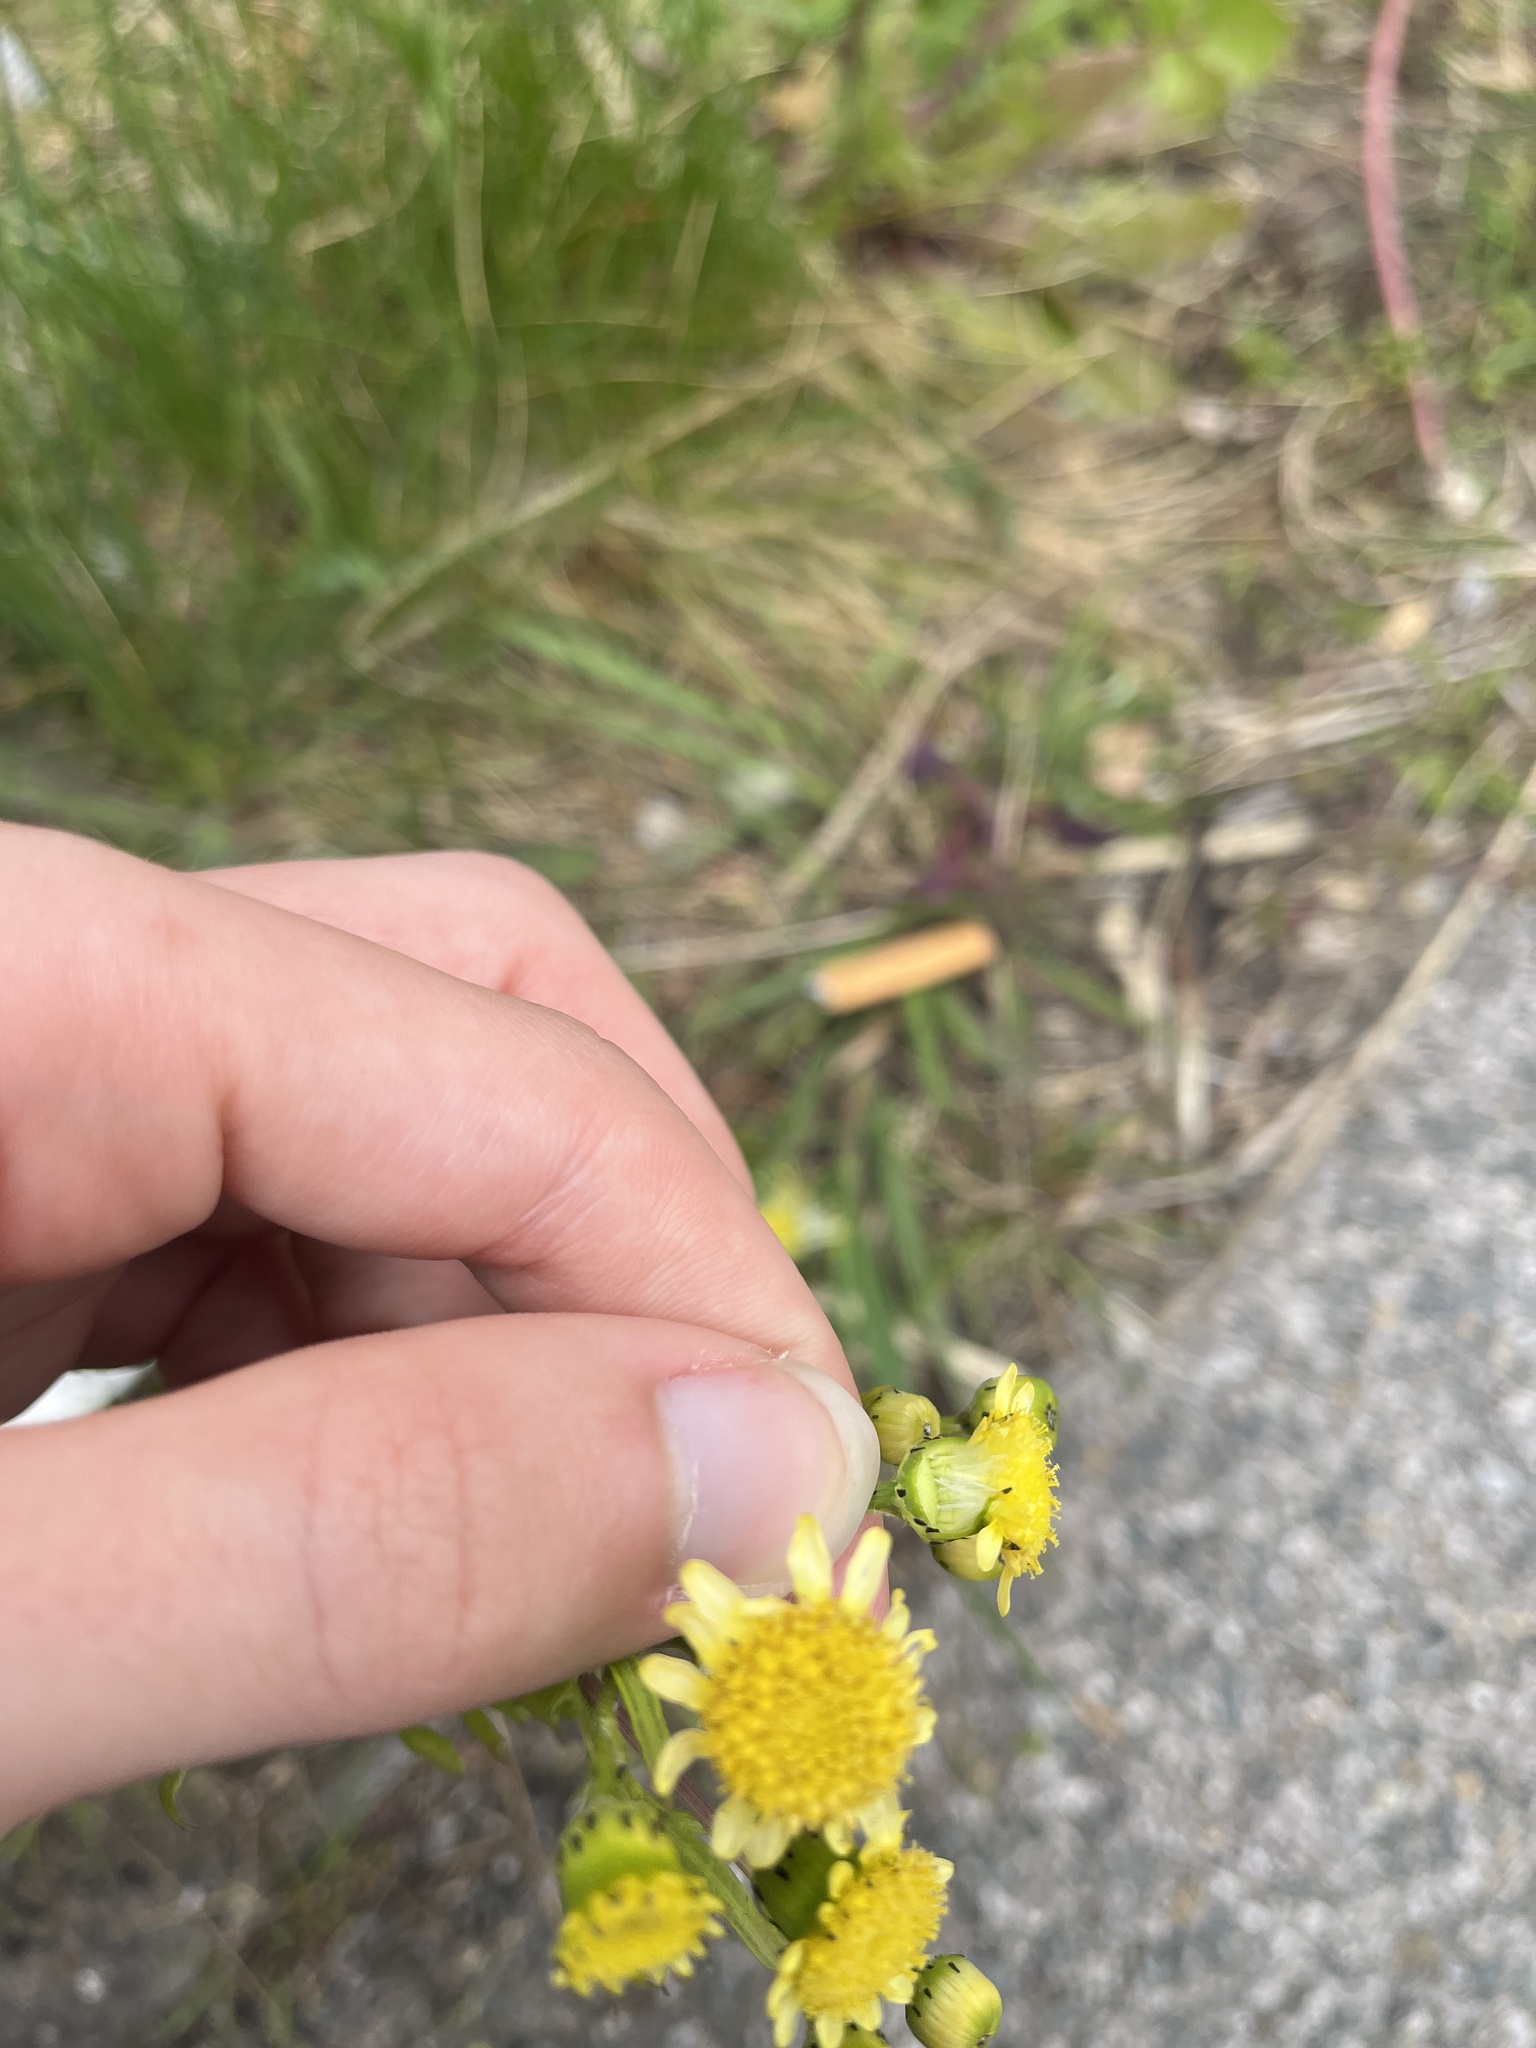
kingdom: Plantae
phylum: Tracheophyta
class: Magnoliopsida
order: Asterales
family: Asteraceae
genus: Senecio
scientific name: Senecio squalidus
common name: Oxford ragwort
